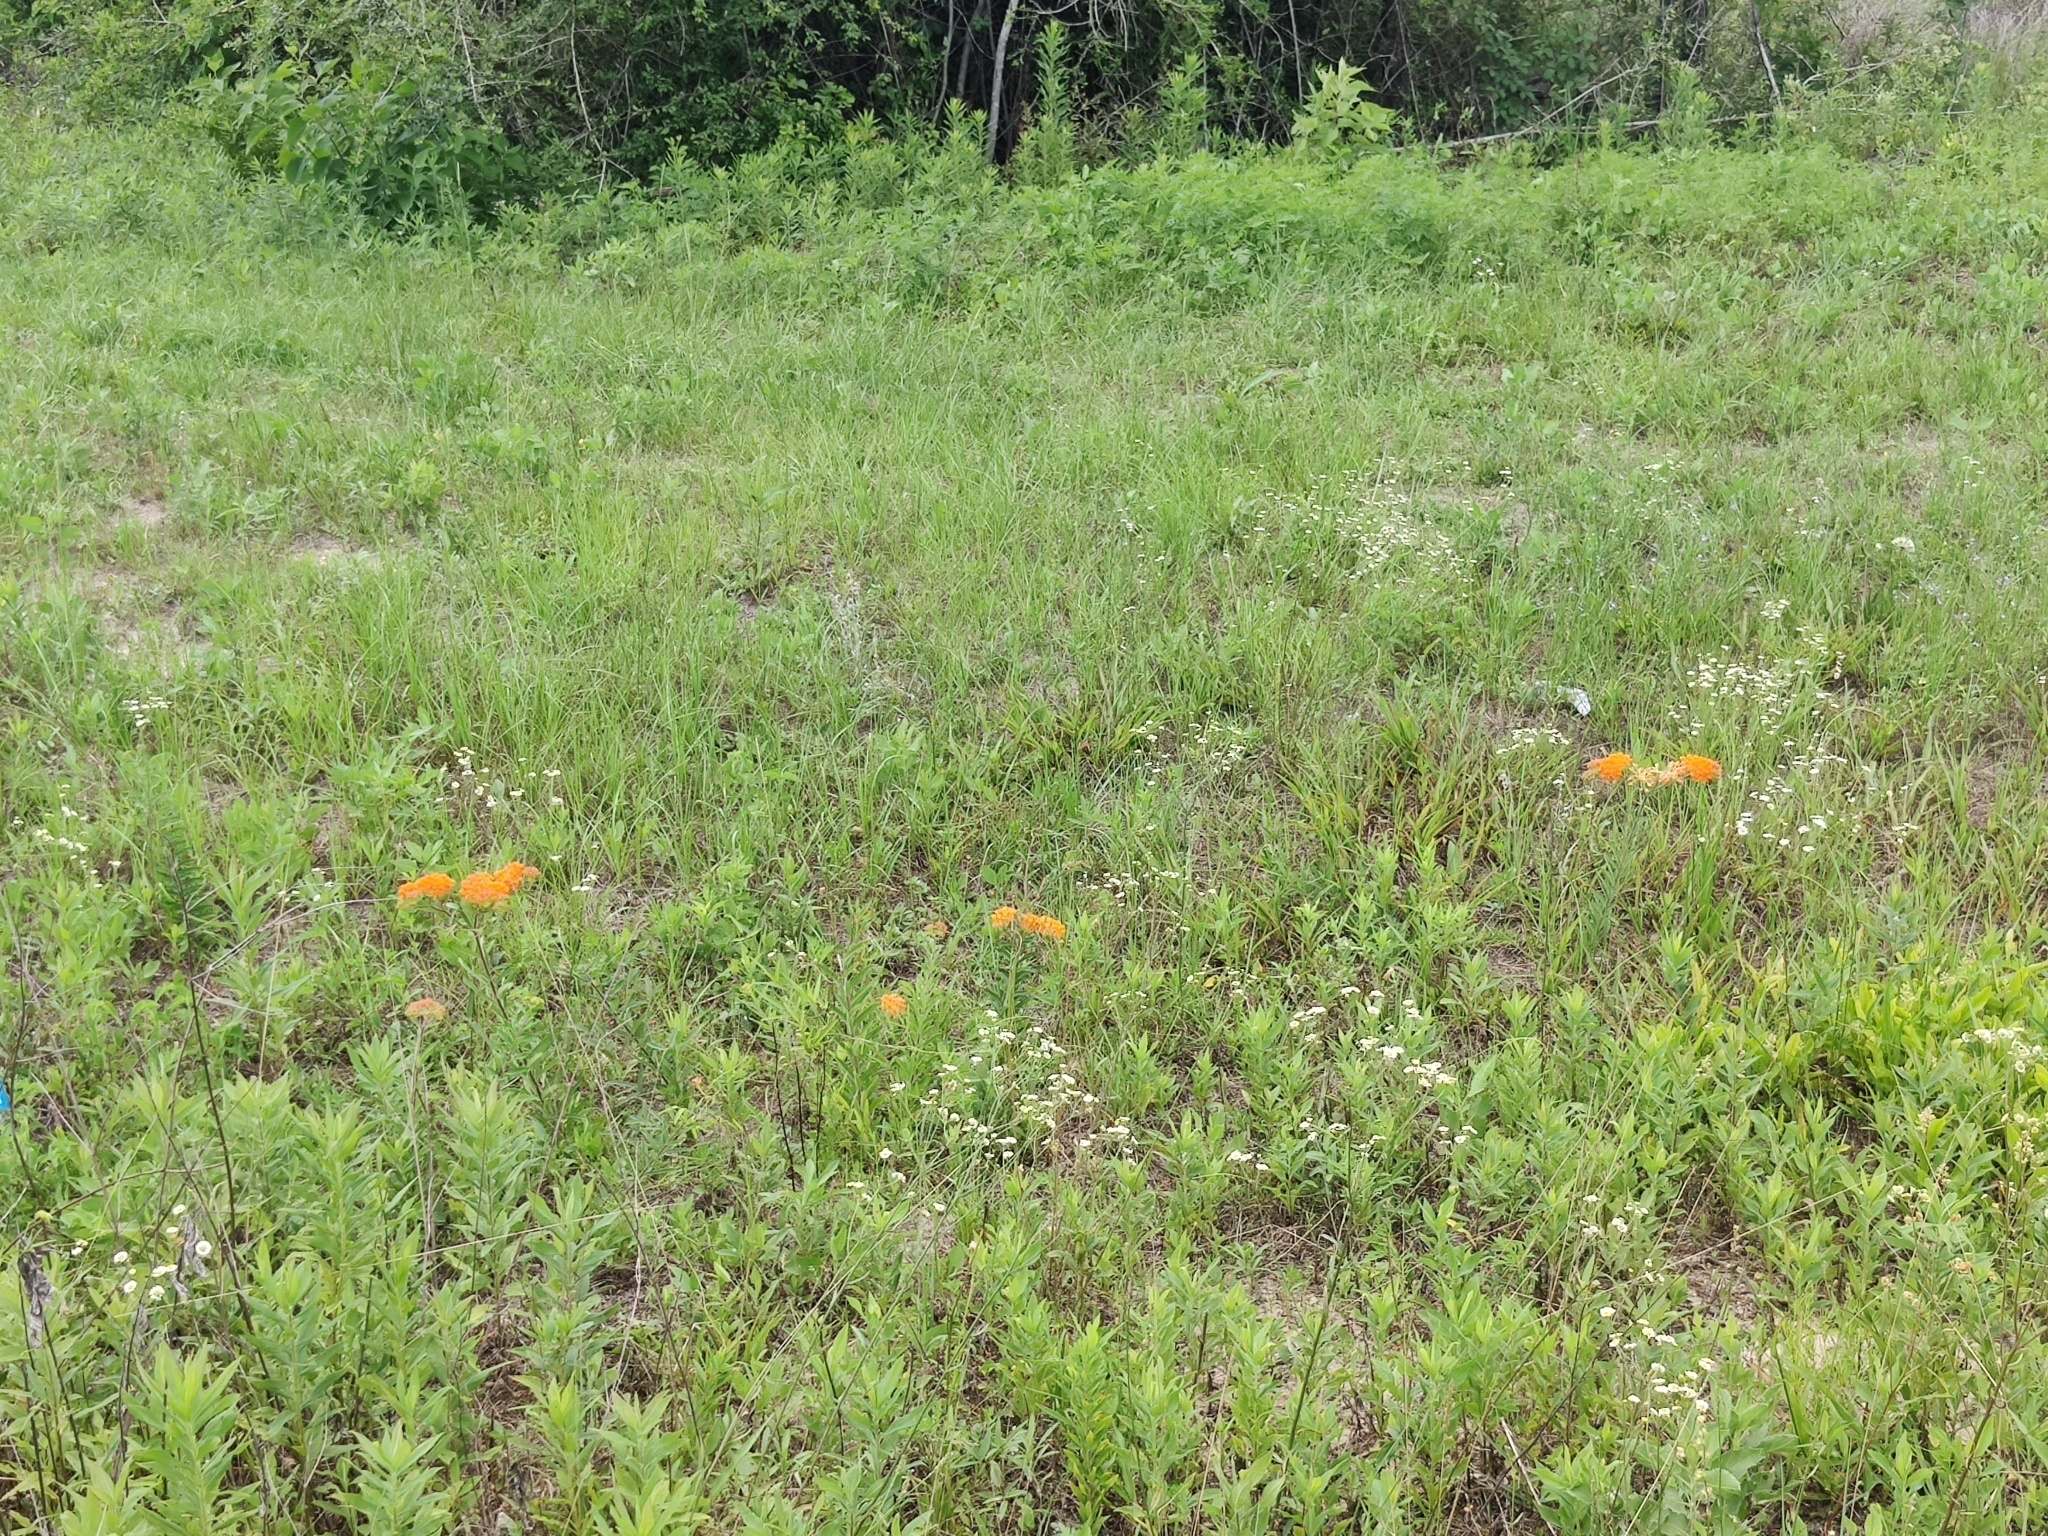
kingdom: Plantae
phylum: Tracheophyta
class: Magnoliopsida
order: Gentianales
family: Apocynaceae
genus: Asclepias
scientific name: Asclepias tuberosa
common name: Butterfly milkweed
